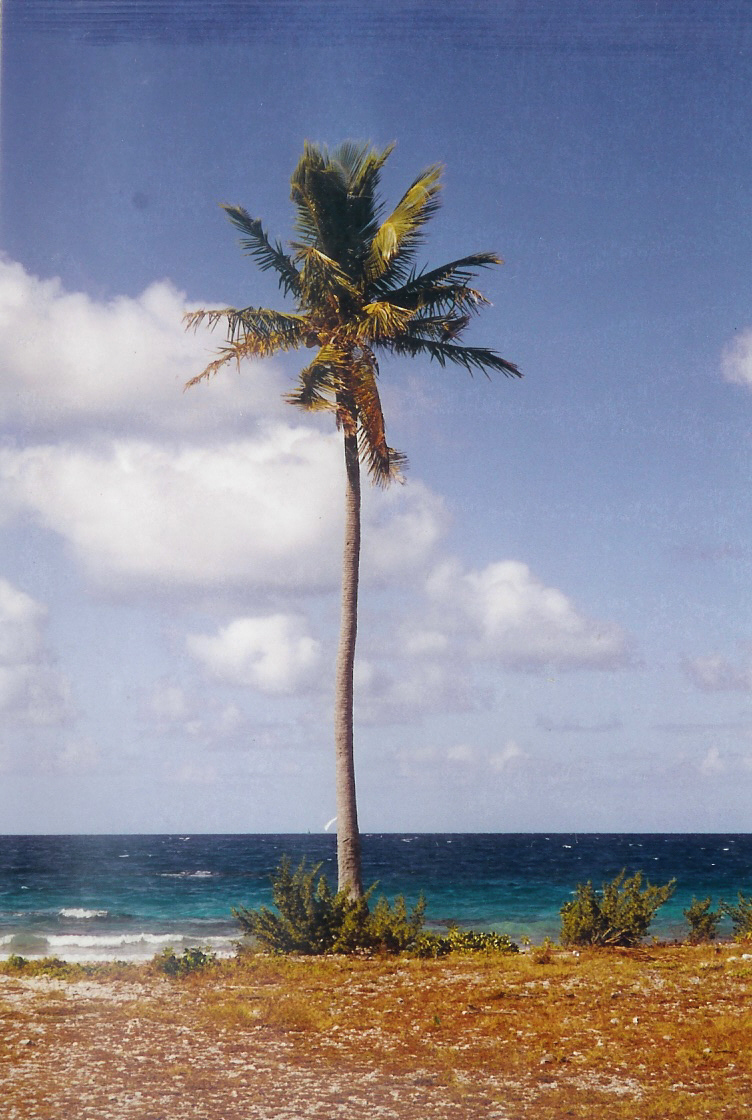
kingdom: Plantae
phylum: Tracheophyta
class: Liliopsida
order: Arecales
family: Arecaceae
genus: Cocos
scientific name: Cocos nucifera
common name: Coconut palm
